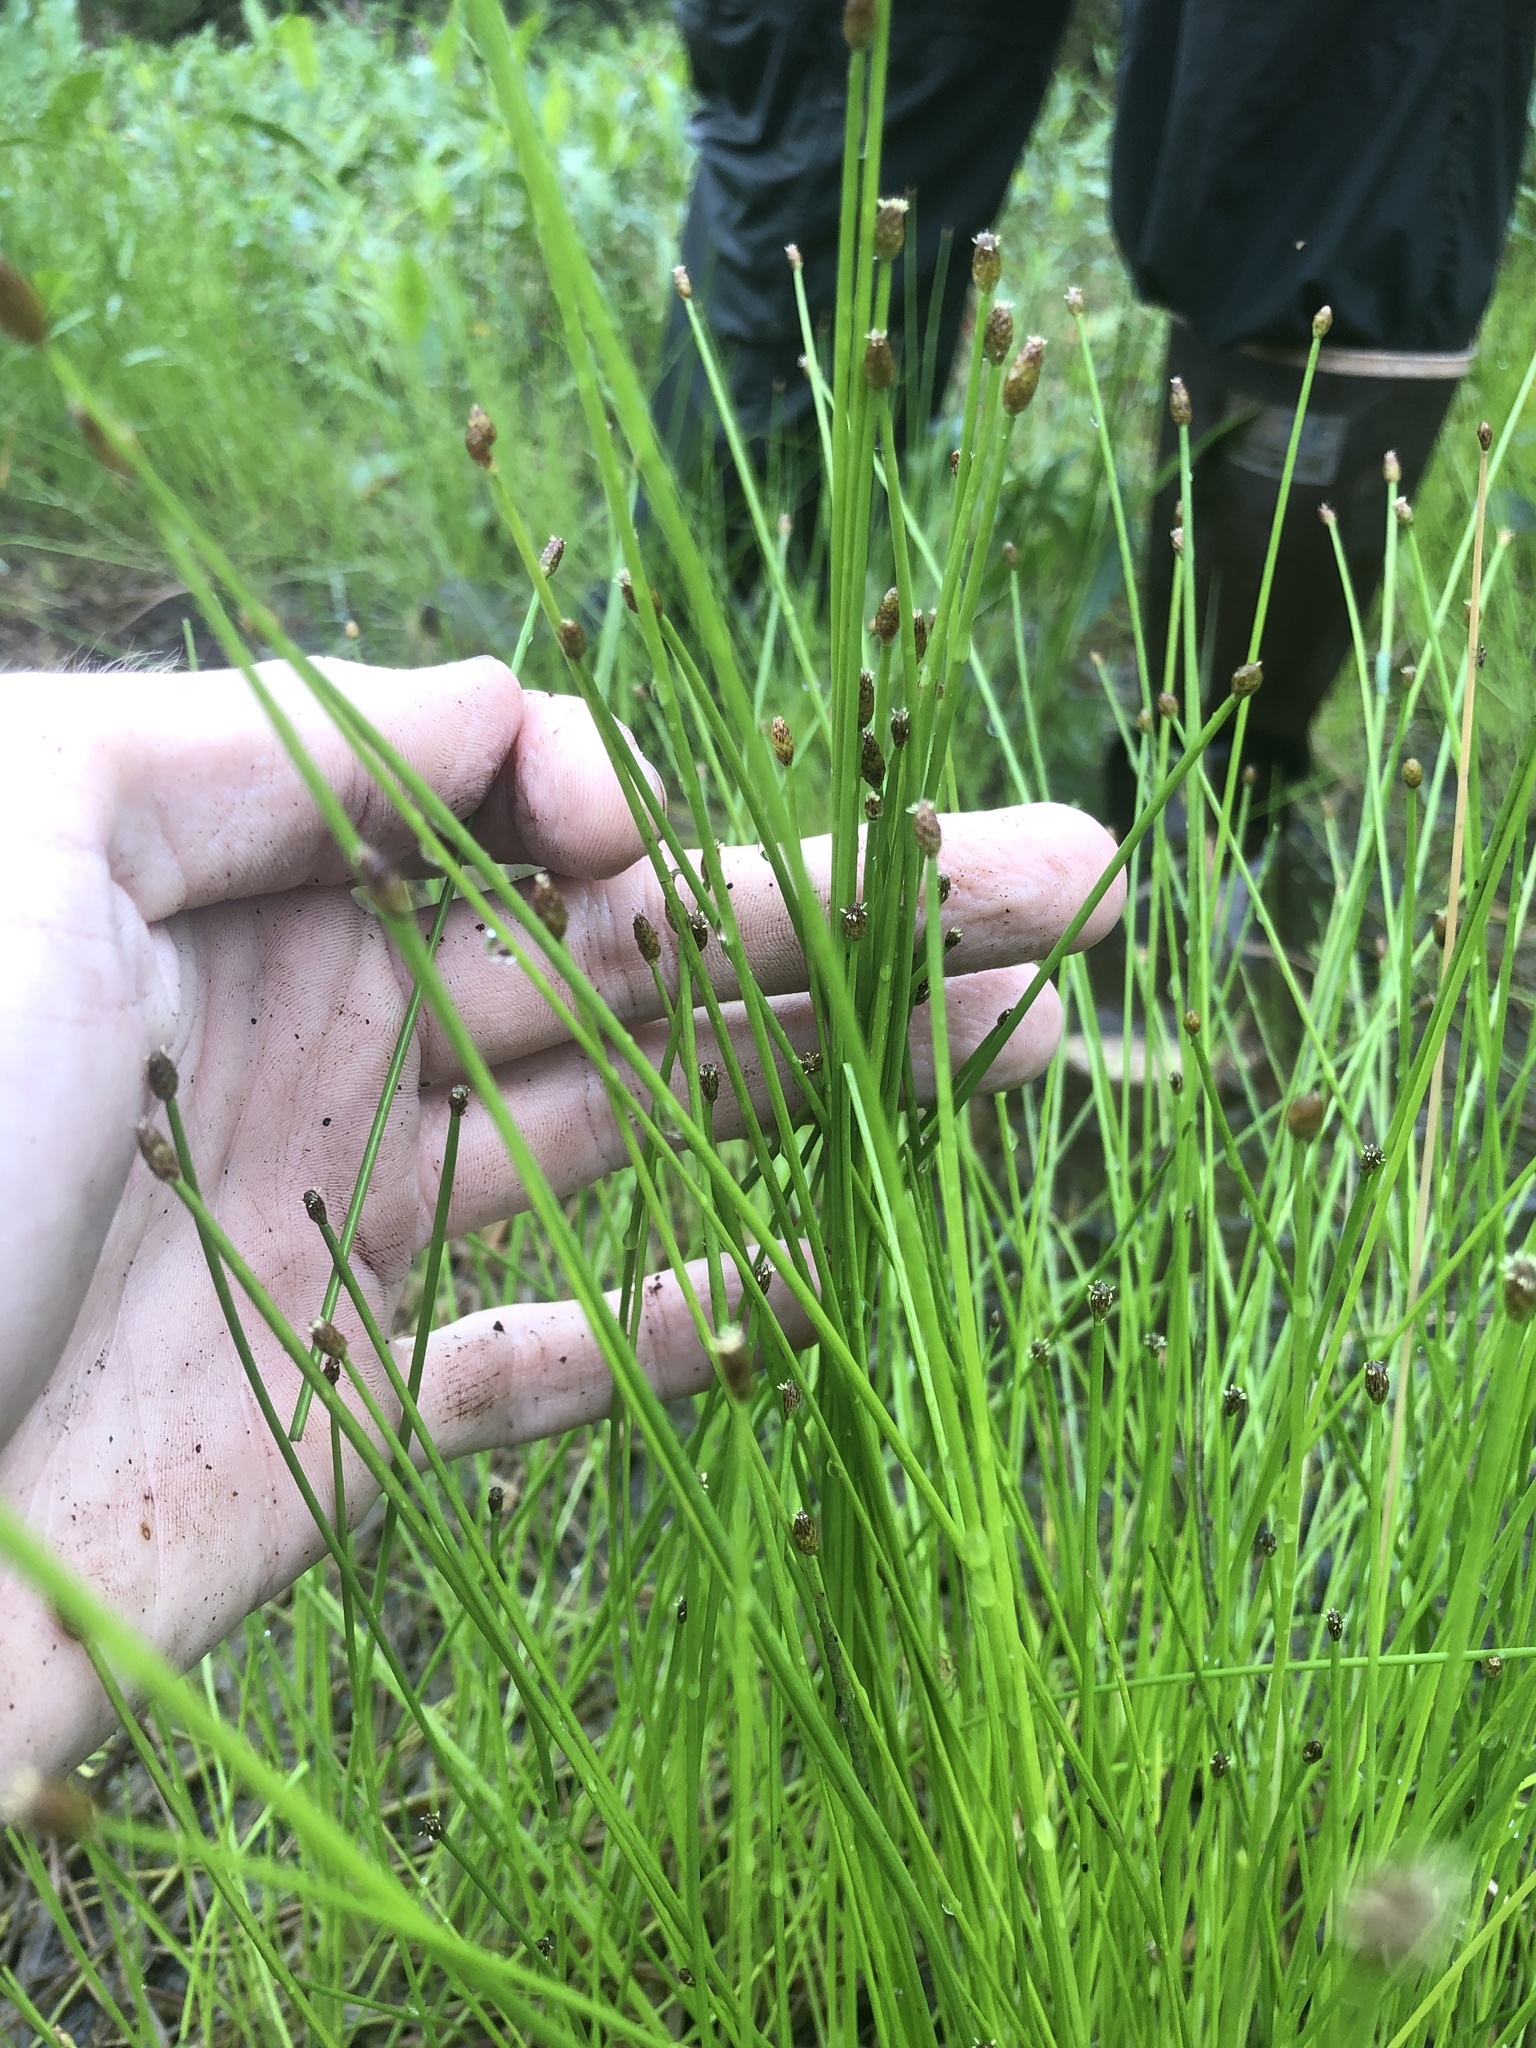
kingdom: Plantae
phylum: Tracheophyta
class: Liliopsida
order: Poales
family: Cyperaceae
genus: Eleocharis
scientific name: Eleocharis obtusa
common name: Blunt spikerush
